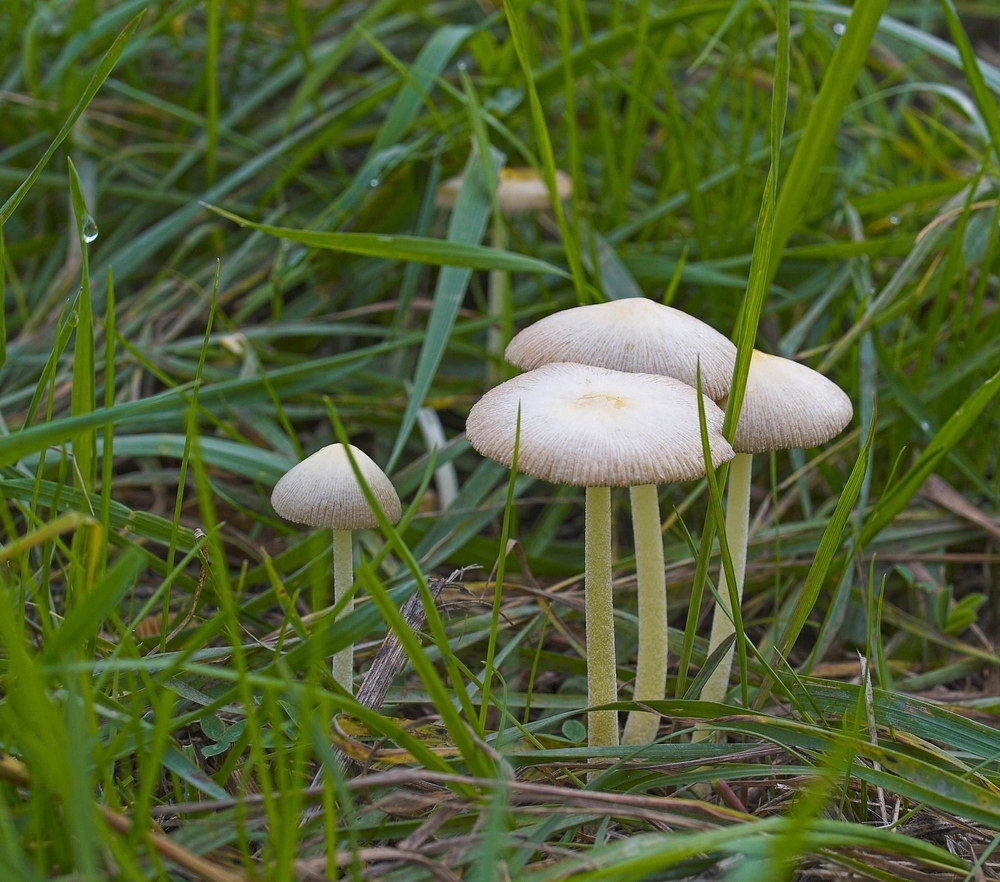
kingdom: Fungi
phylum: Basidiomycota
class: Agaricomycetes
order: Agaricales
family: Bolbitiaceae
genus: Bolbitius
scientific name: Bolbitius titubans
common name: Yellow fieldcap
